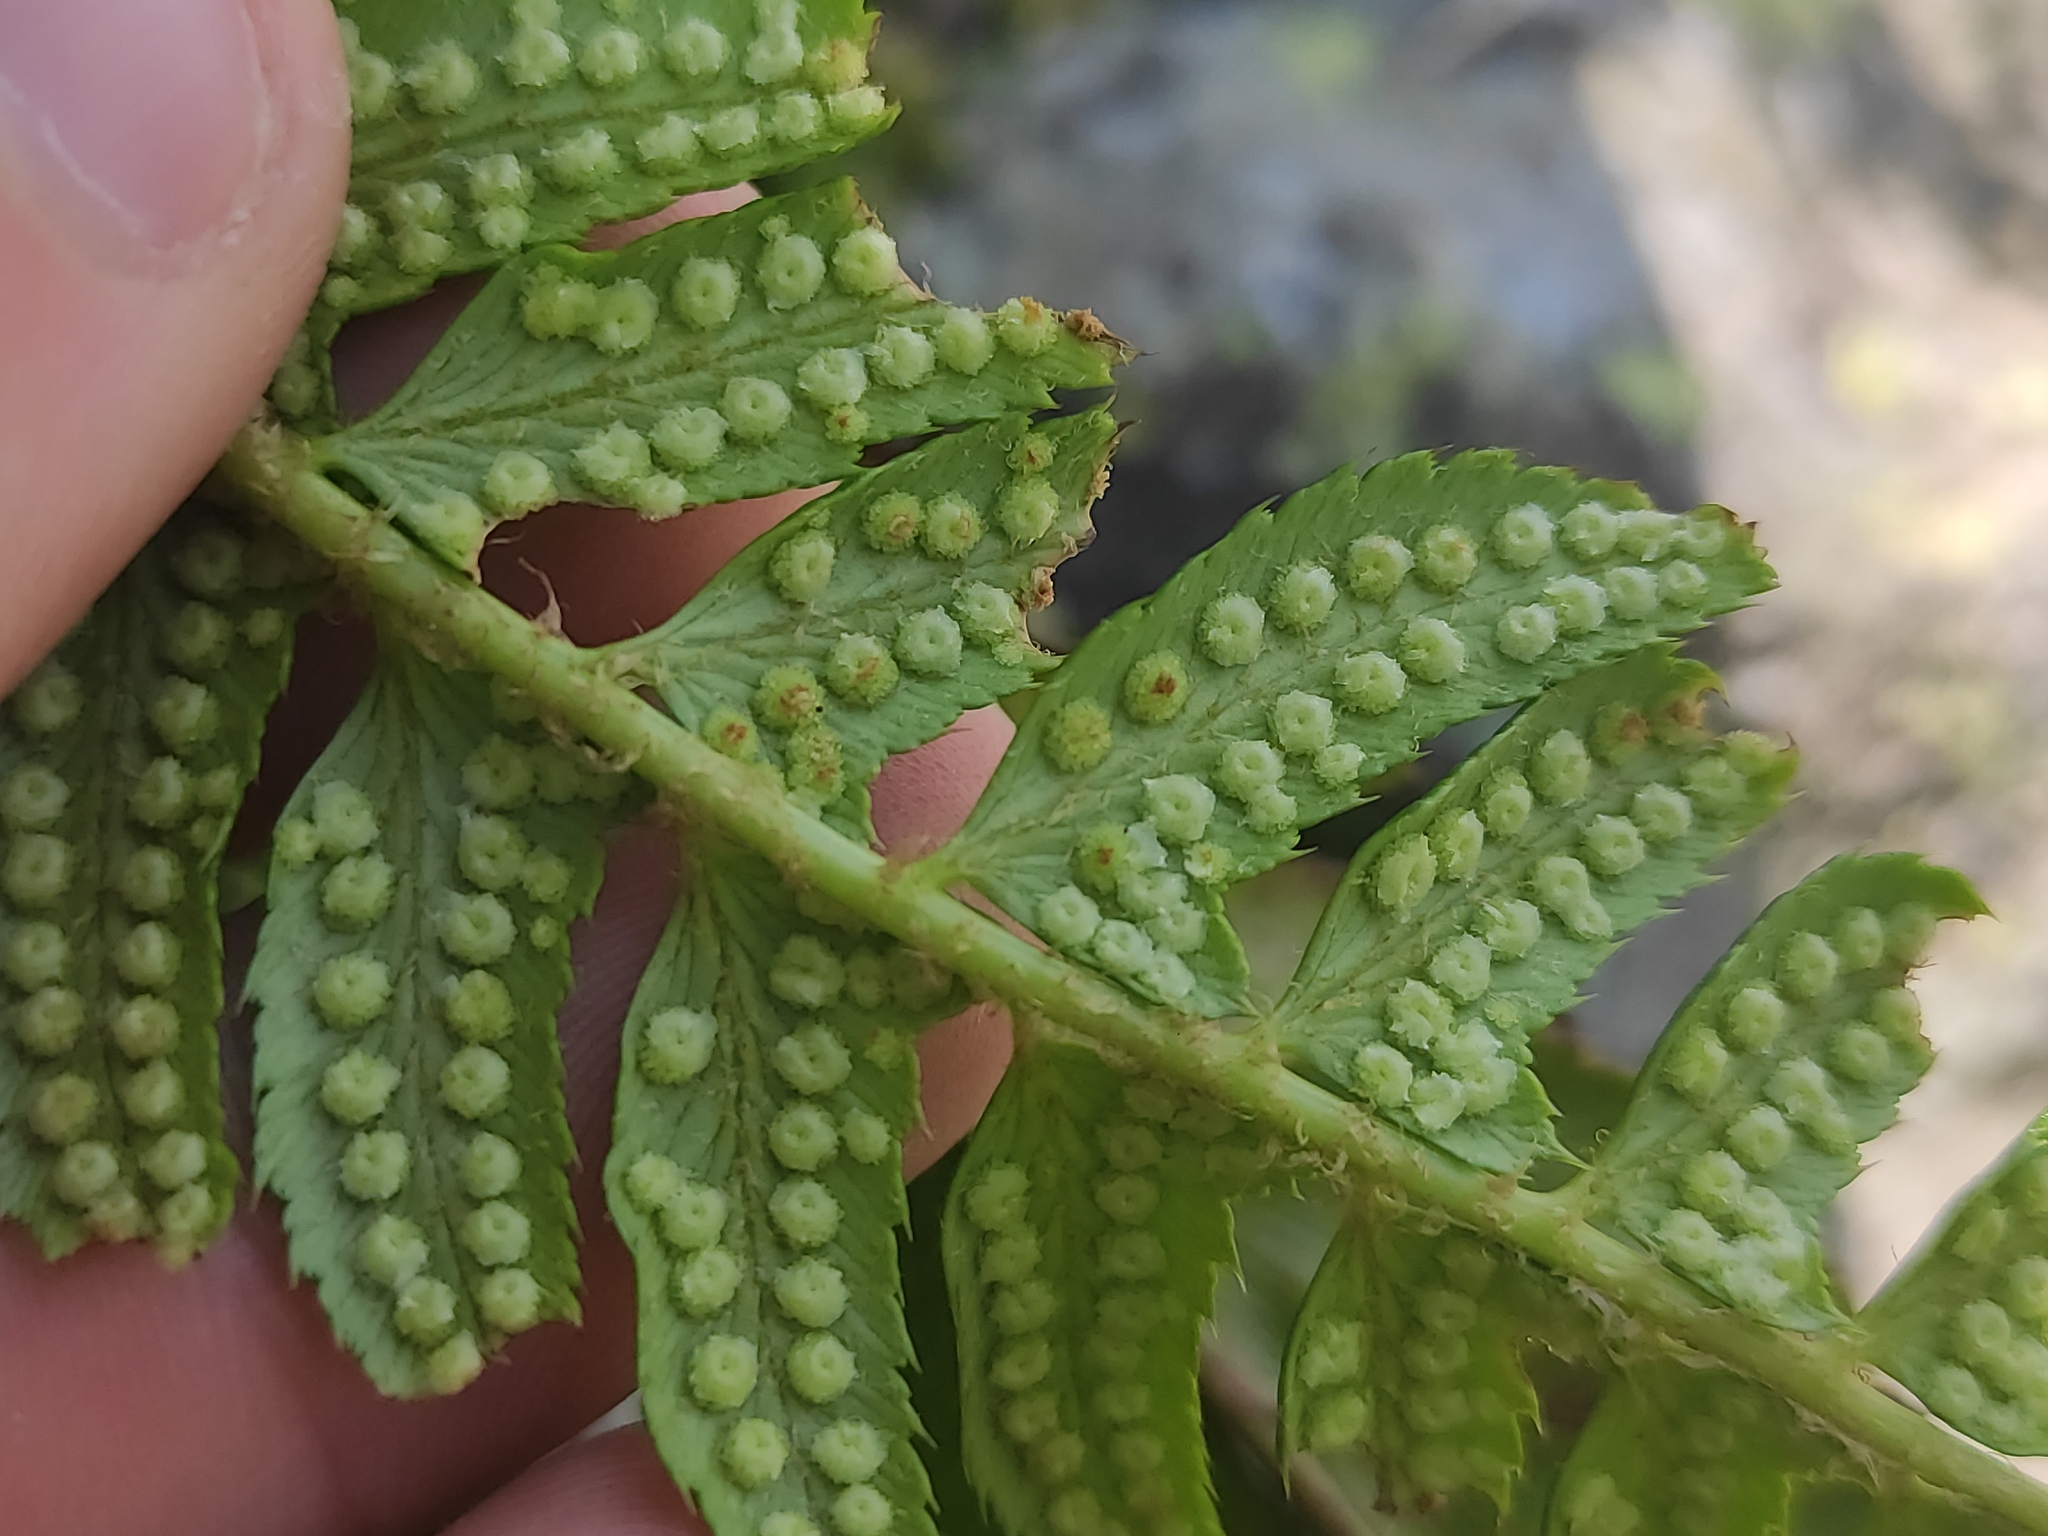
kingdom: Plantae
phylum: Tracheophyta
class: Polypodiopsida
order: Polypodiales
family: Dryopteridaceae
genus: Polystichum
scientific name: Polystichum lonchitis
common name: Holly fern
